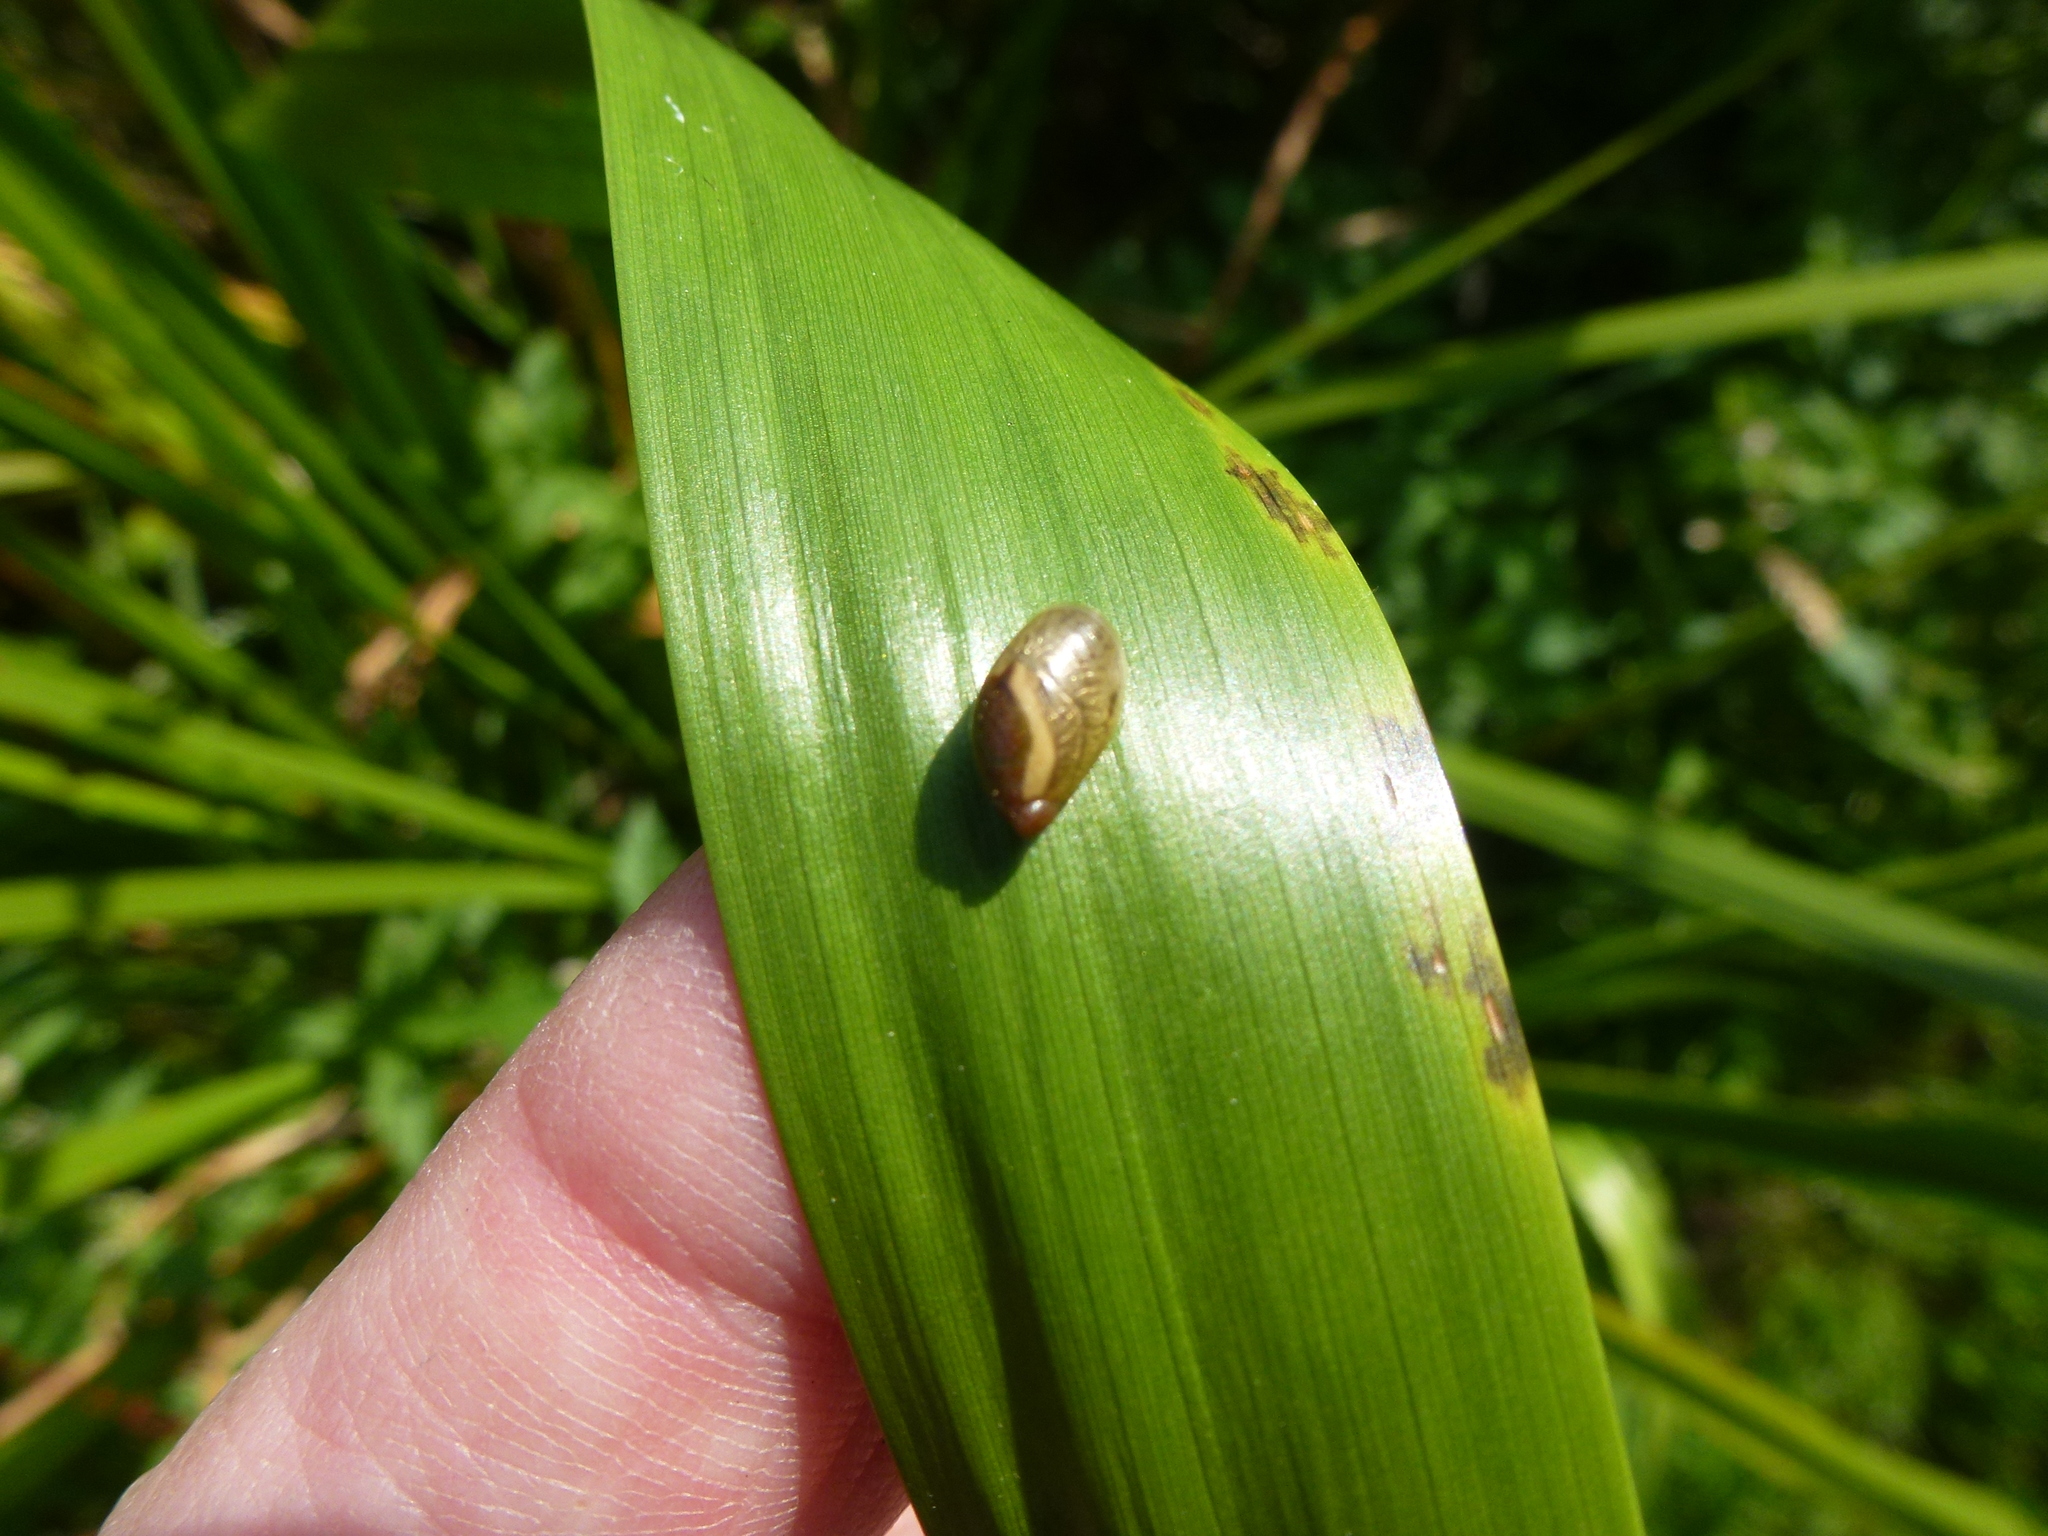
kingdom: Animalia
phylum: Mollusca
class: Gastropoda
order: Stylommatophora
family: Succineidae
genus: Succinea
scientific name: Succinea putris
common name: European ambersnail
